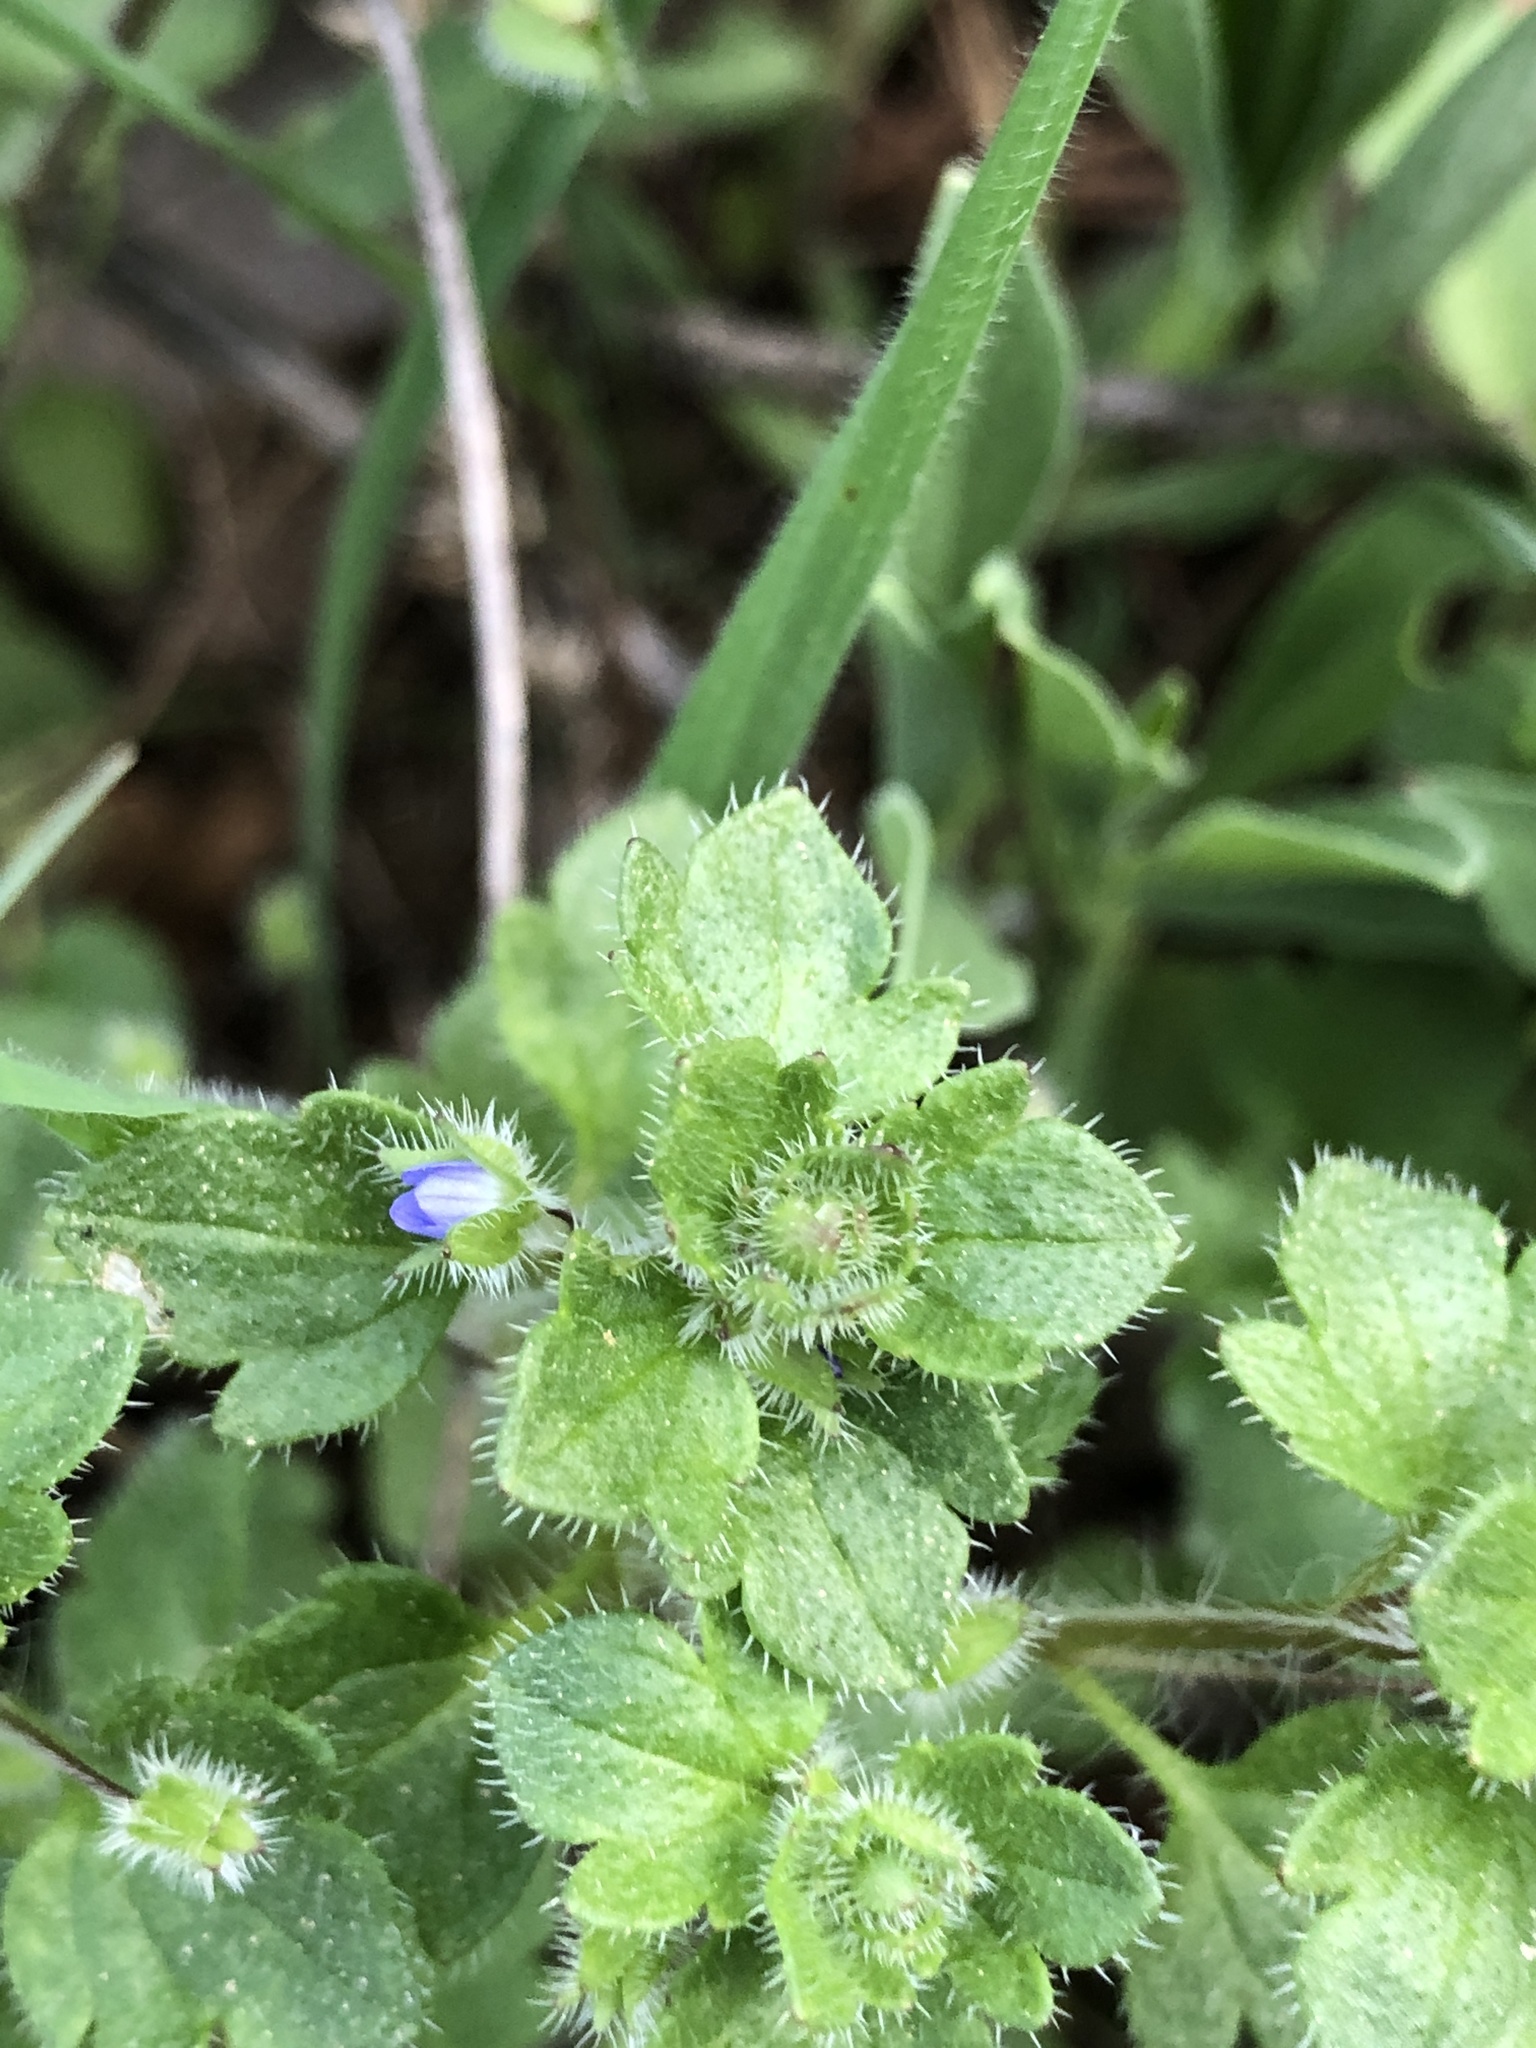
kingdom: Plantae
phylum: Tracheophyta
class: Magnoliopsida
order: Lamiales
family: Plantaginaceae
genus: Veronica
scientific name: Veronica hederifolia
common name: Ivy-leaved speedwell
